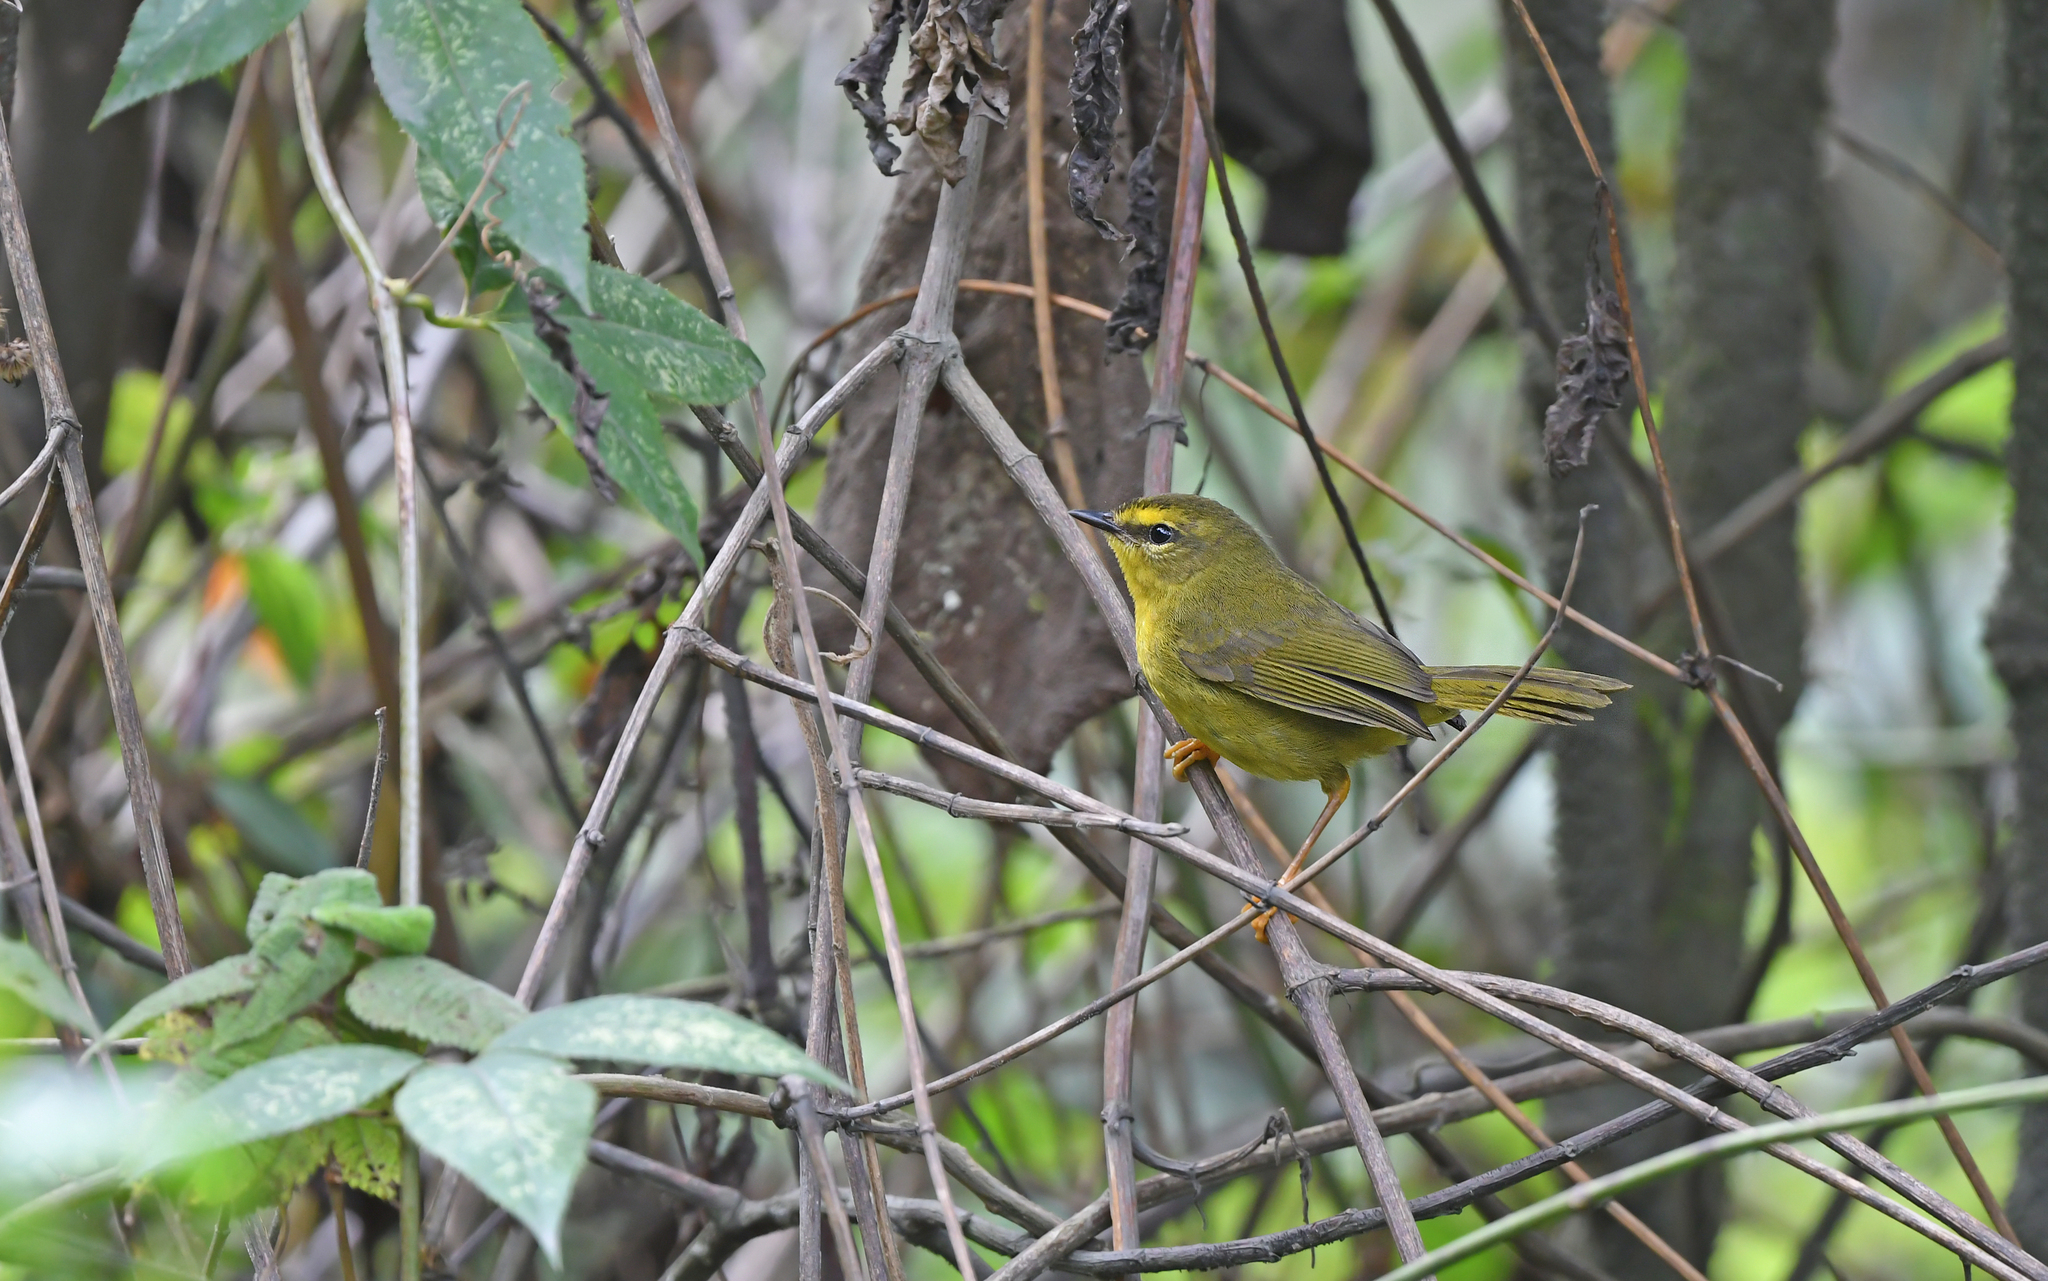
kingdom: Animalia
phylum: Chordata
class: Aves
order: Passeriformes
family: Parulidae
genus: Myiothlypis
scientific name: Myiothlypis signata
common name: Pale-legged warbler
